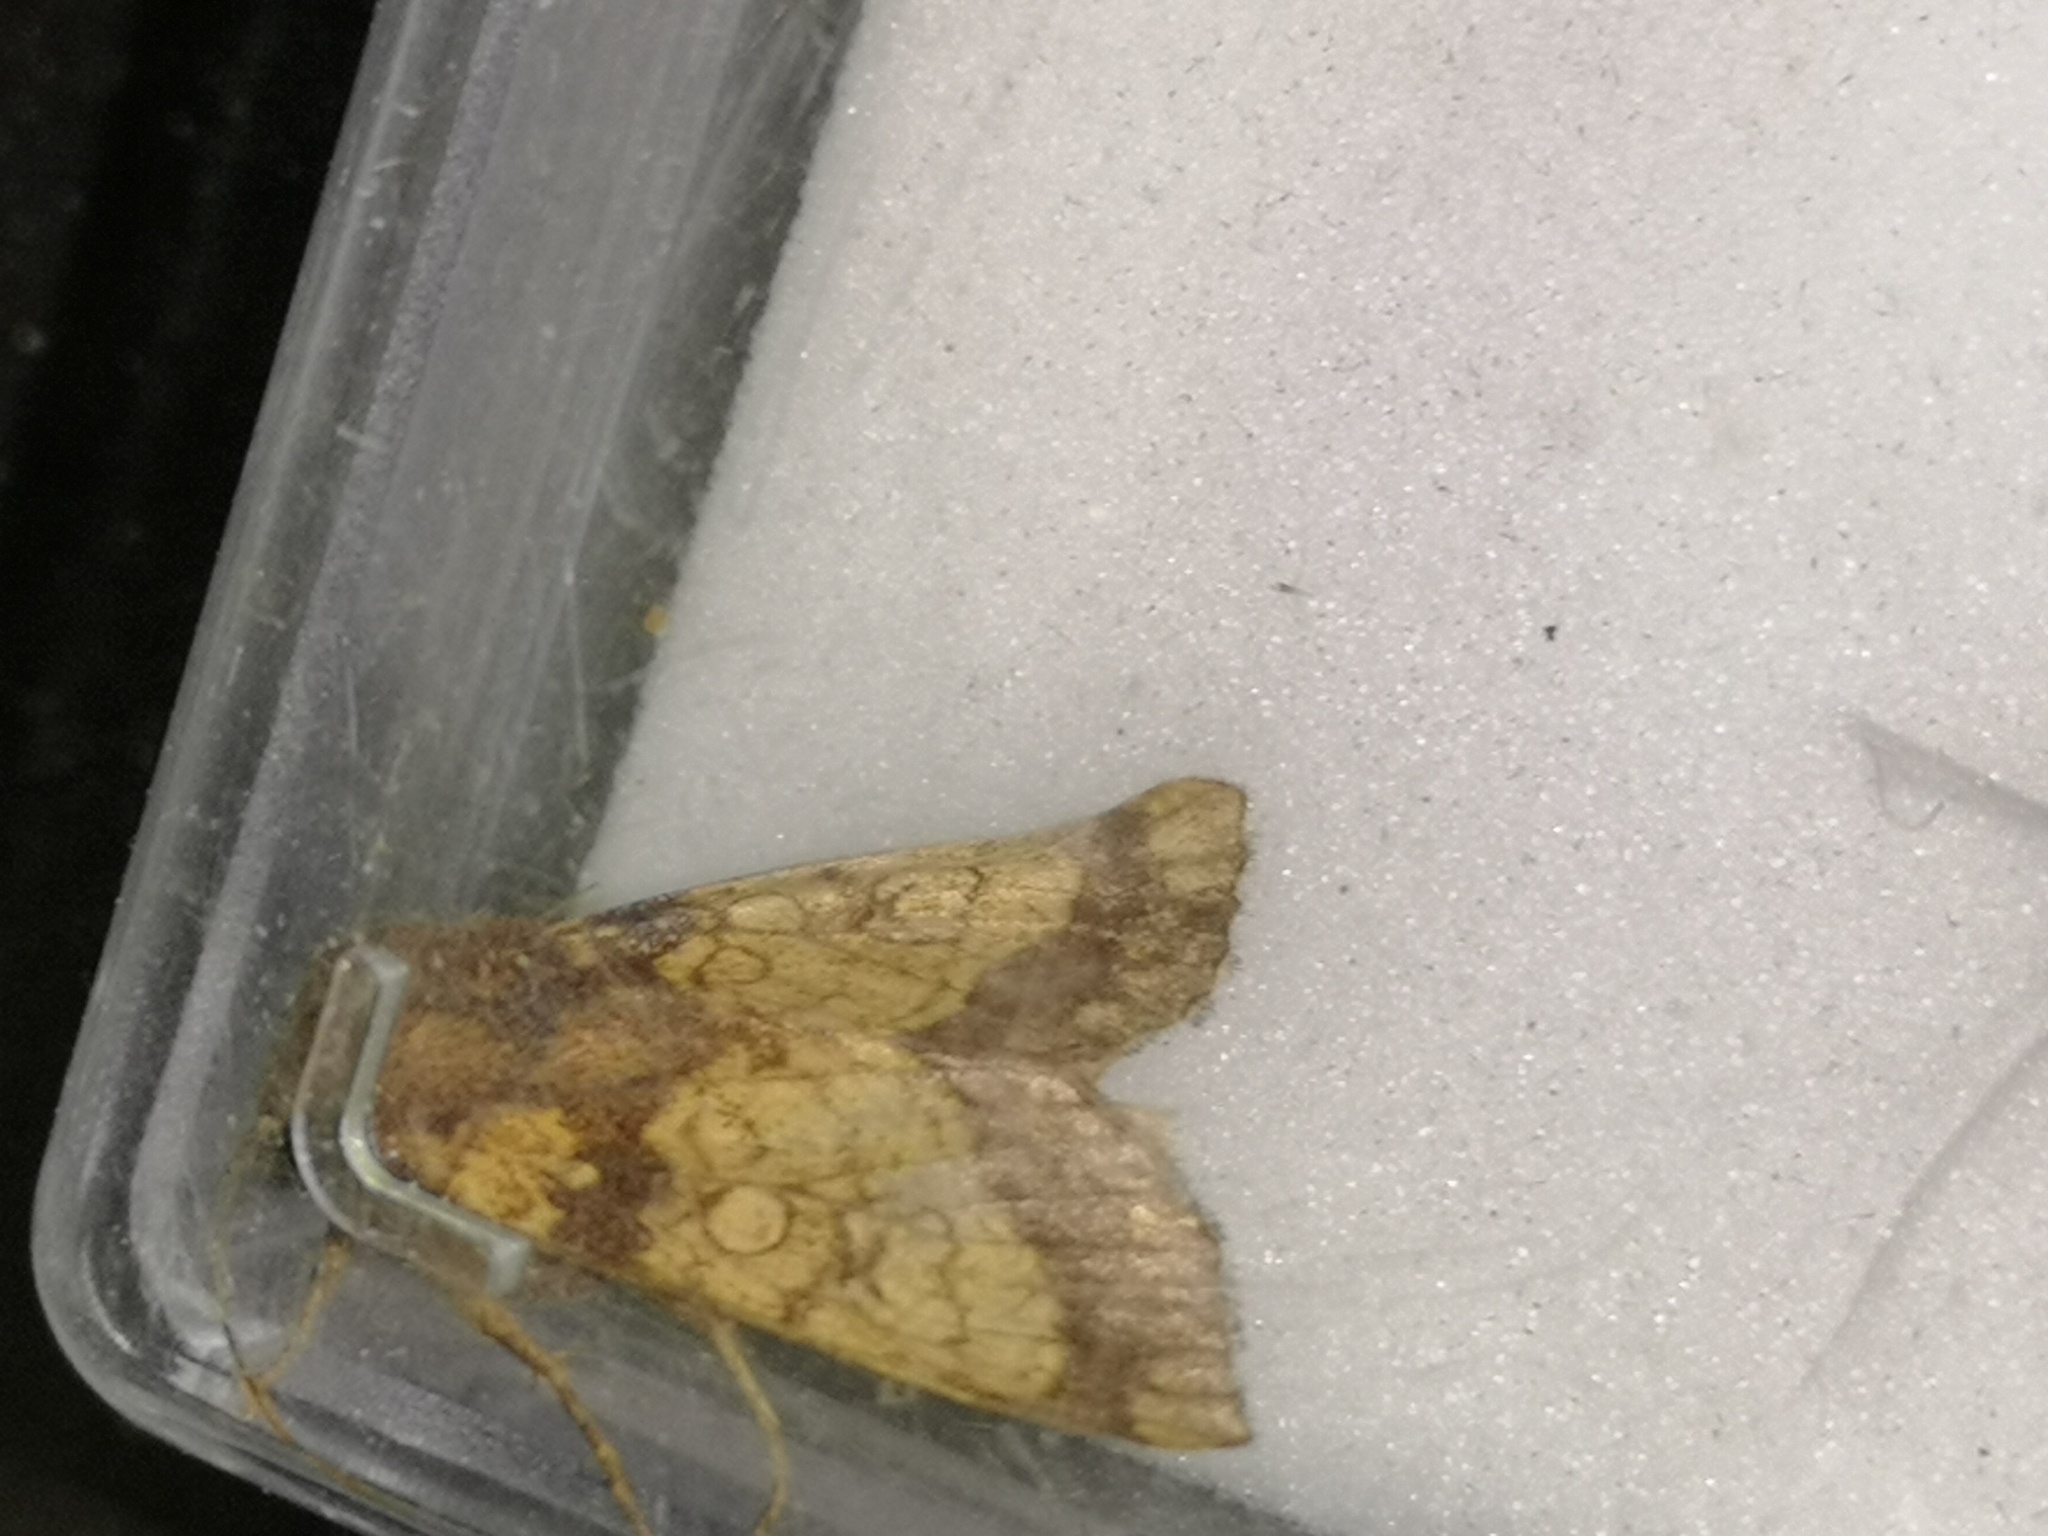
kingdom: Animalia
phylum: Arthropoda
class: Insecta
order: Lepidoptera
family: Noctuidae
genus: Gortyna
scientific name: Gortyna flavago
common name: Frosted orange
